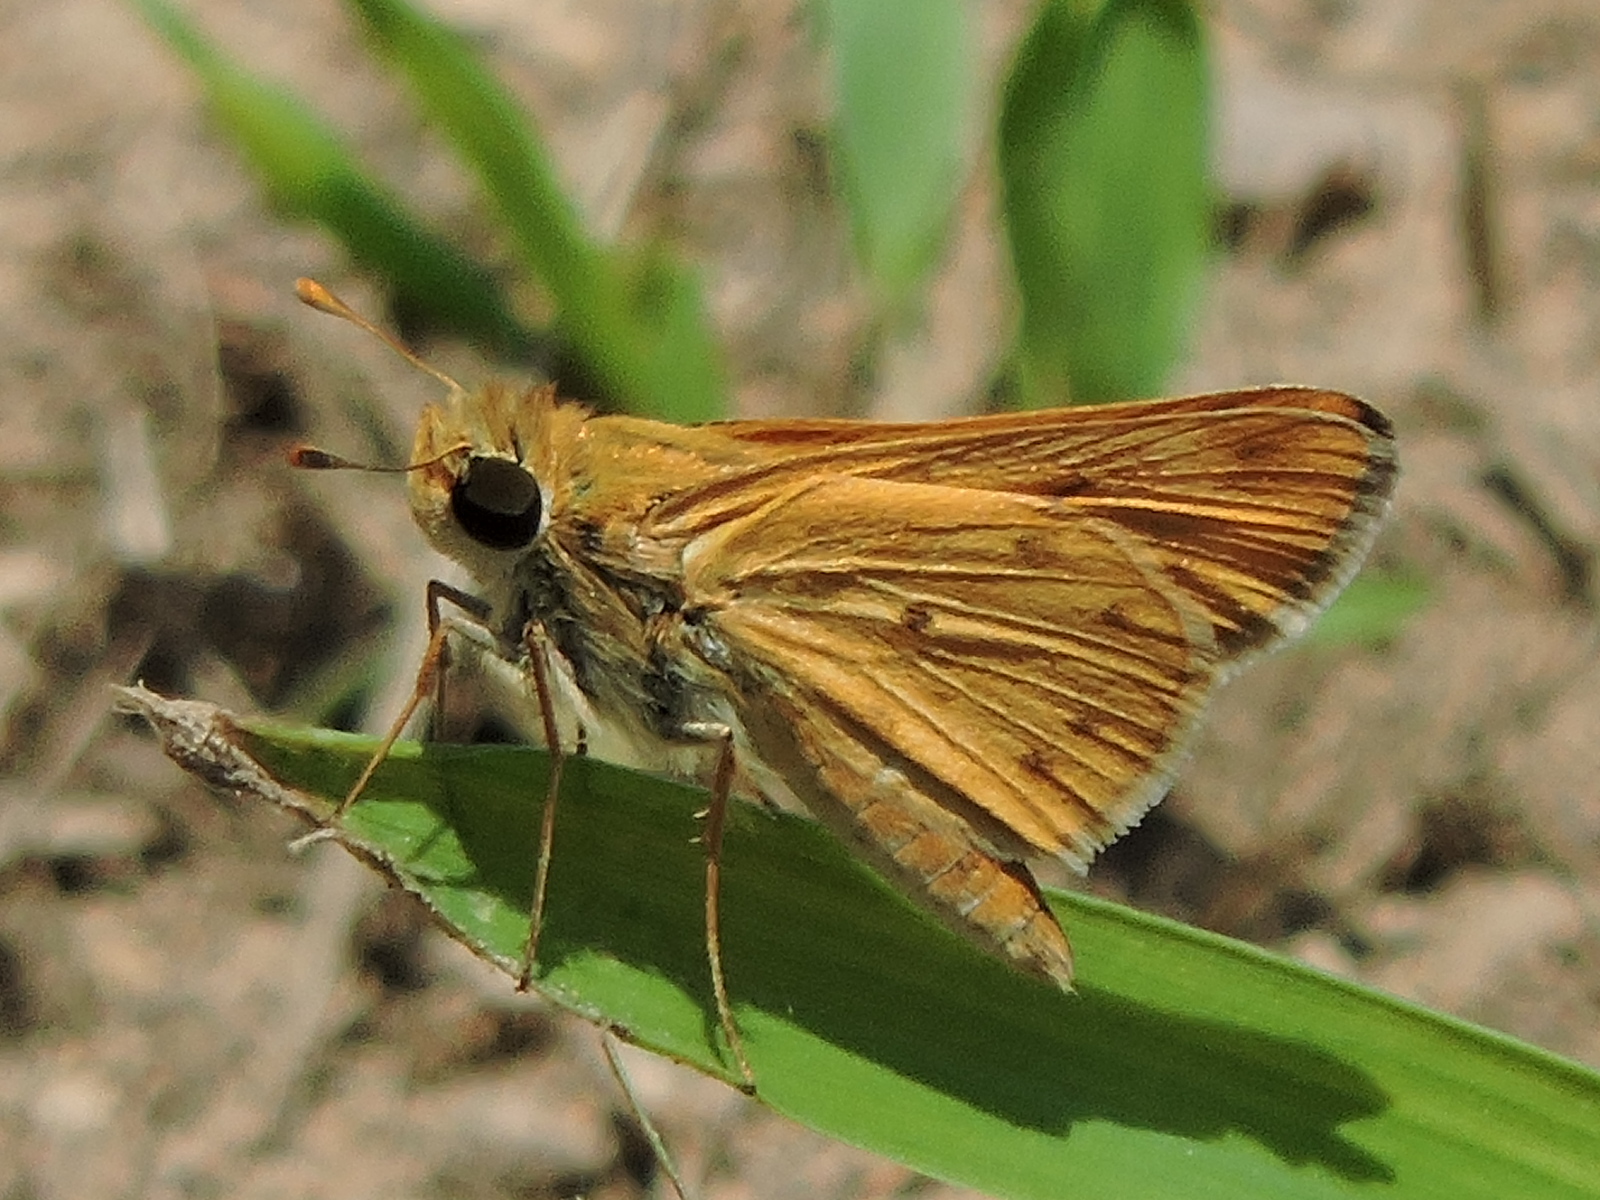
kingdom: Animalia
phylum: Arthropoda
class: Insecta
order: Lepidoptera
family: Hesperiidae
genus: Hylephila
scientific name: Hylephila phyleus
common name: Fiery skipper
